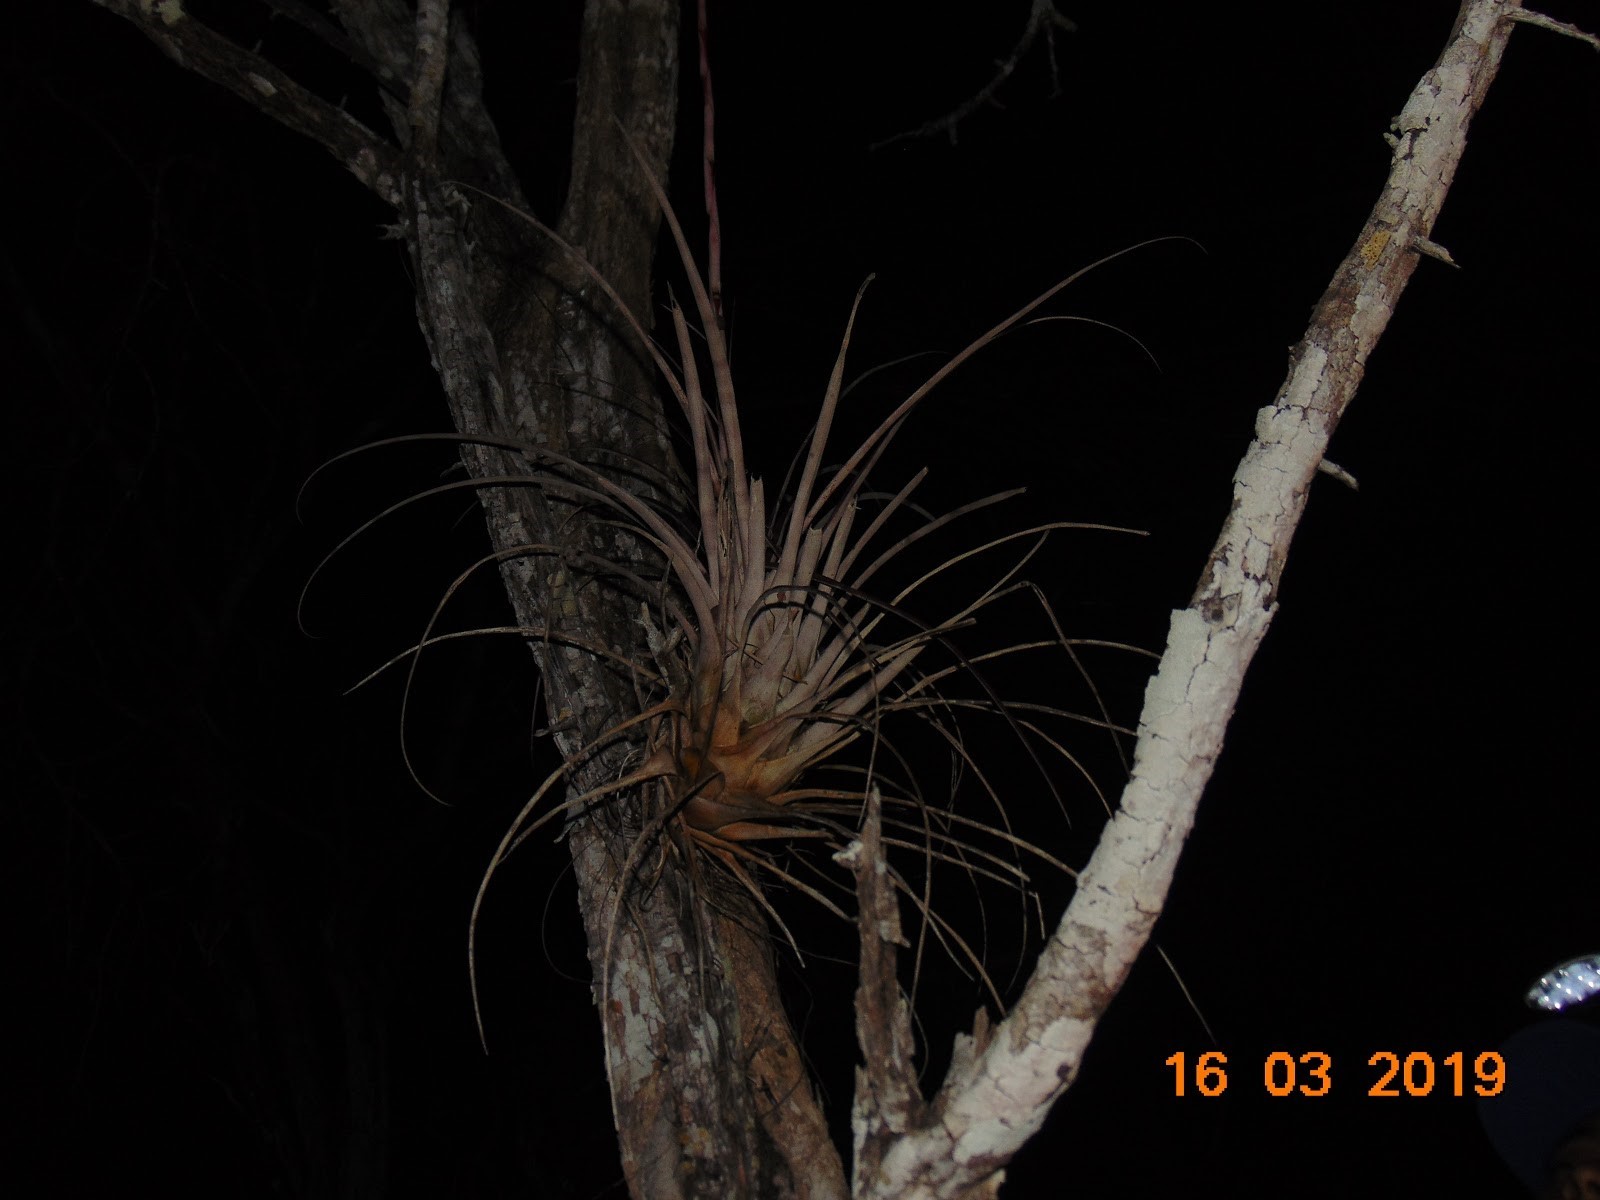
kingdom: Plantae
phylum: Tracheophyta
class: Liliopsida
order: Poales
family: Bromeliaceae
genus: Tillandsia
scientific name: Tillandsia fasciculata
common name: Giant airplant
